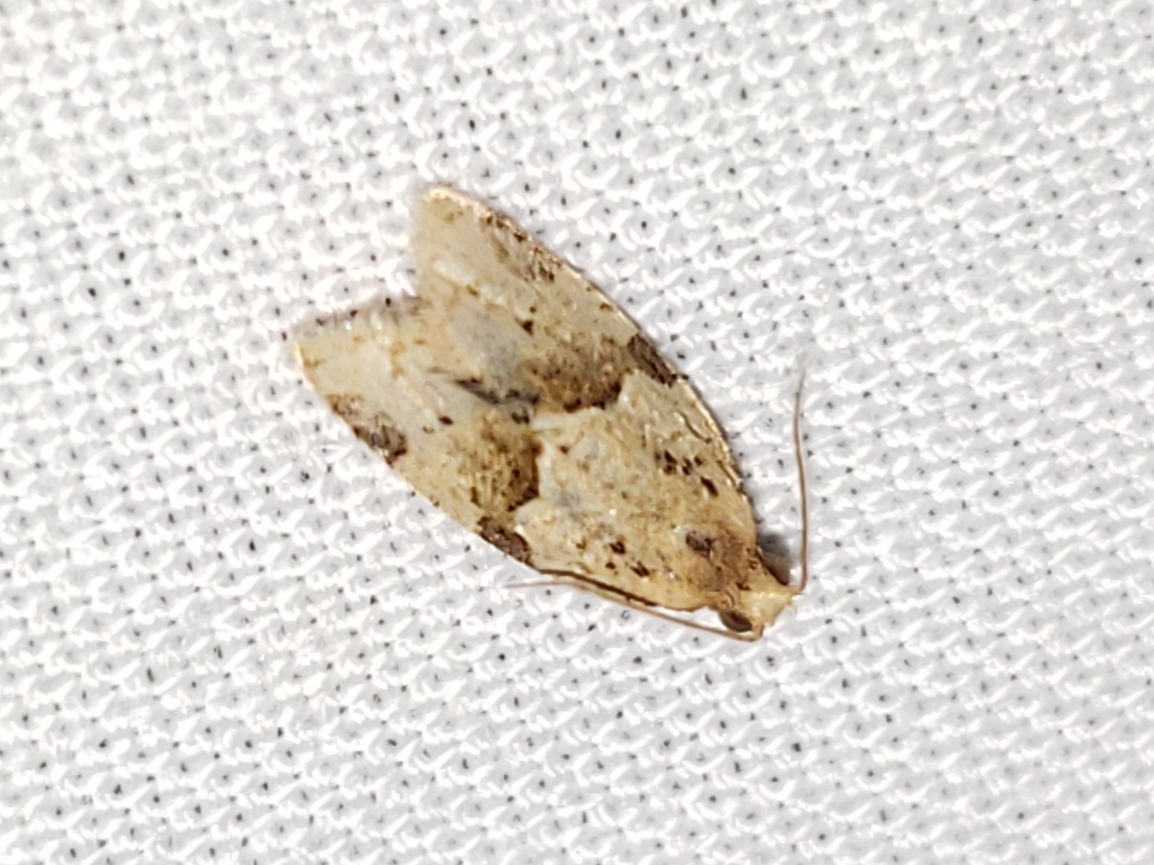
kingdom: Animalia
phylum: Arthropoda
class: Insecta
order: Lepidoptera
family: Tortricidae
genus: Clepsis
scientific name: Clepsis peritana
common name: Garden tortrix
